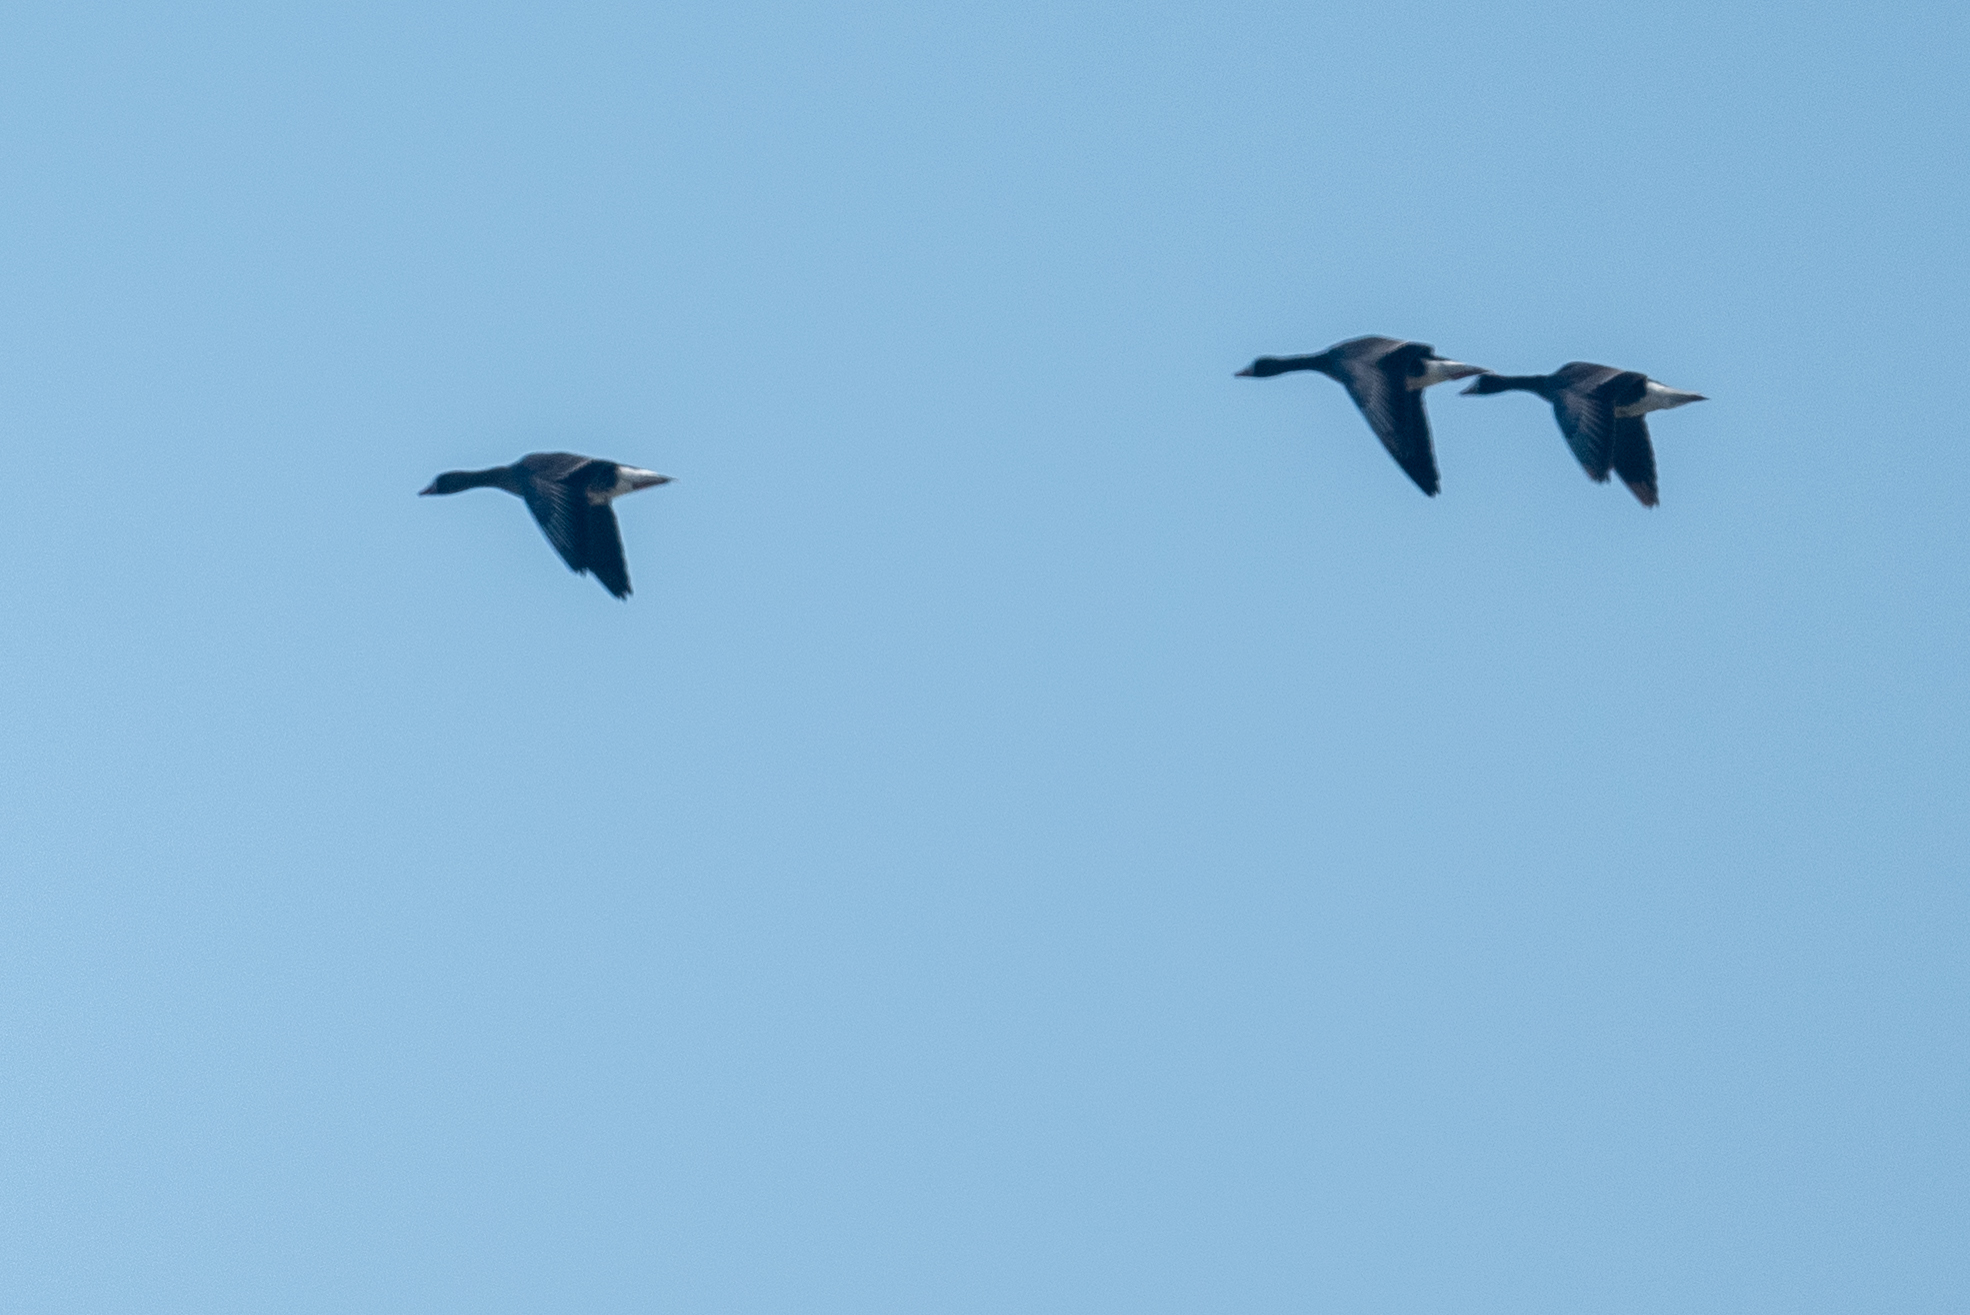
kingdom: Animalia
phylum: Chordata
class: Aves
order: Anseriformes
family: Anatidae
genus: Anser
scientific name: Anser albifrons
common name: Greater white-fronted goose
